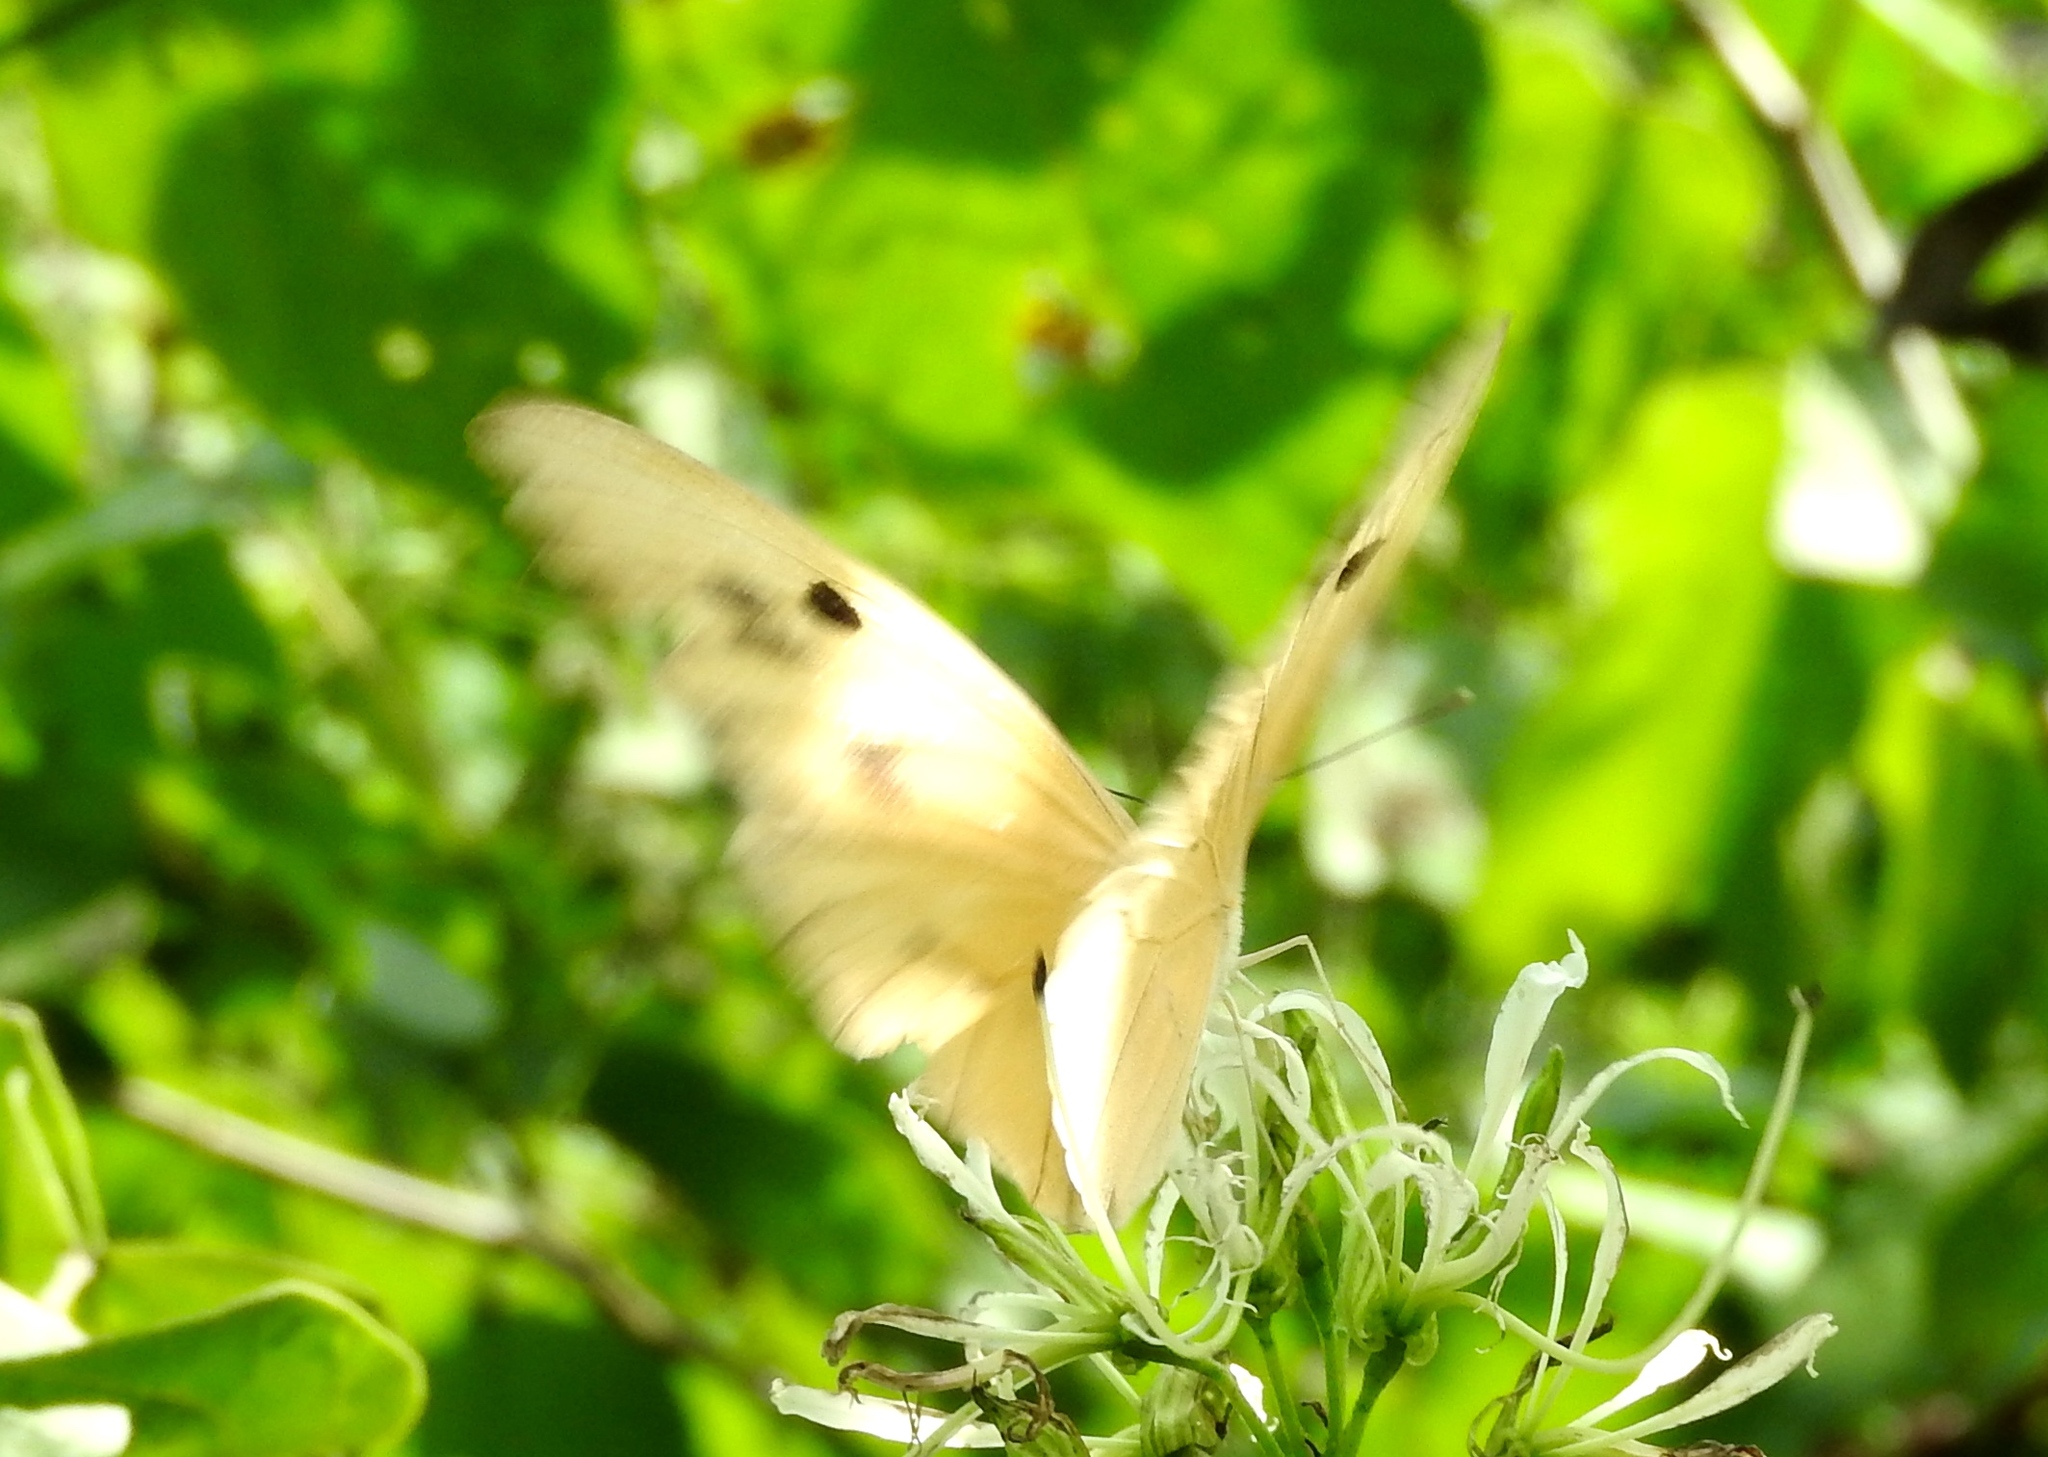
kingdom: Animalia
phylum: Arthropoda
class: Insecta
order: Lepidoptera
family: Pieridae
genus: Ganyra
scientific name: Ganyra josephina
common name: Giant white
